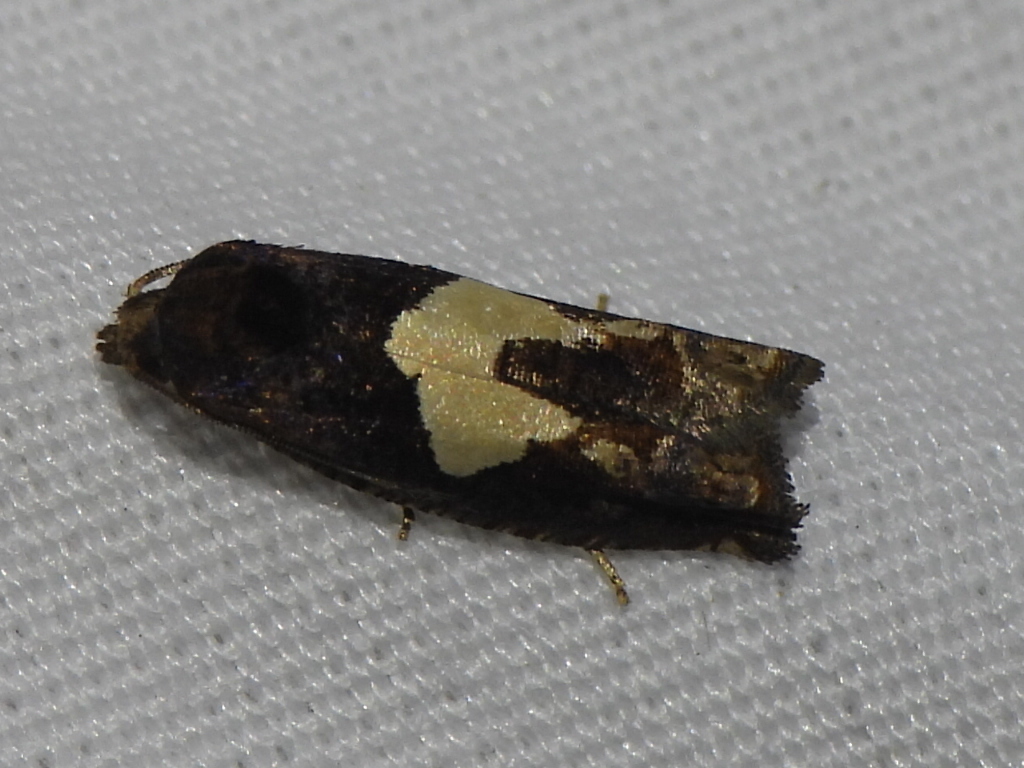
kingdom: Animalia
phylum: Arthropoda
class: Insecta
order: Lepidoptera
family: Tortricidae
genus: Epiblema
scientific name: Epiblema otiosana
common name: Bidens borer moth
